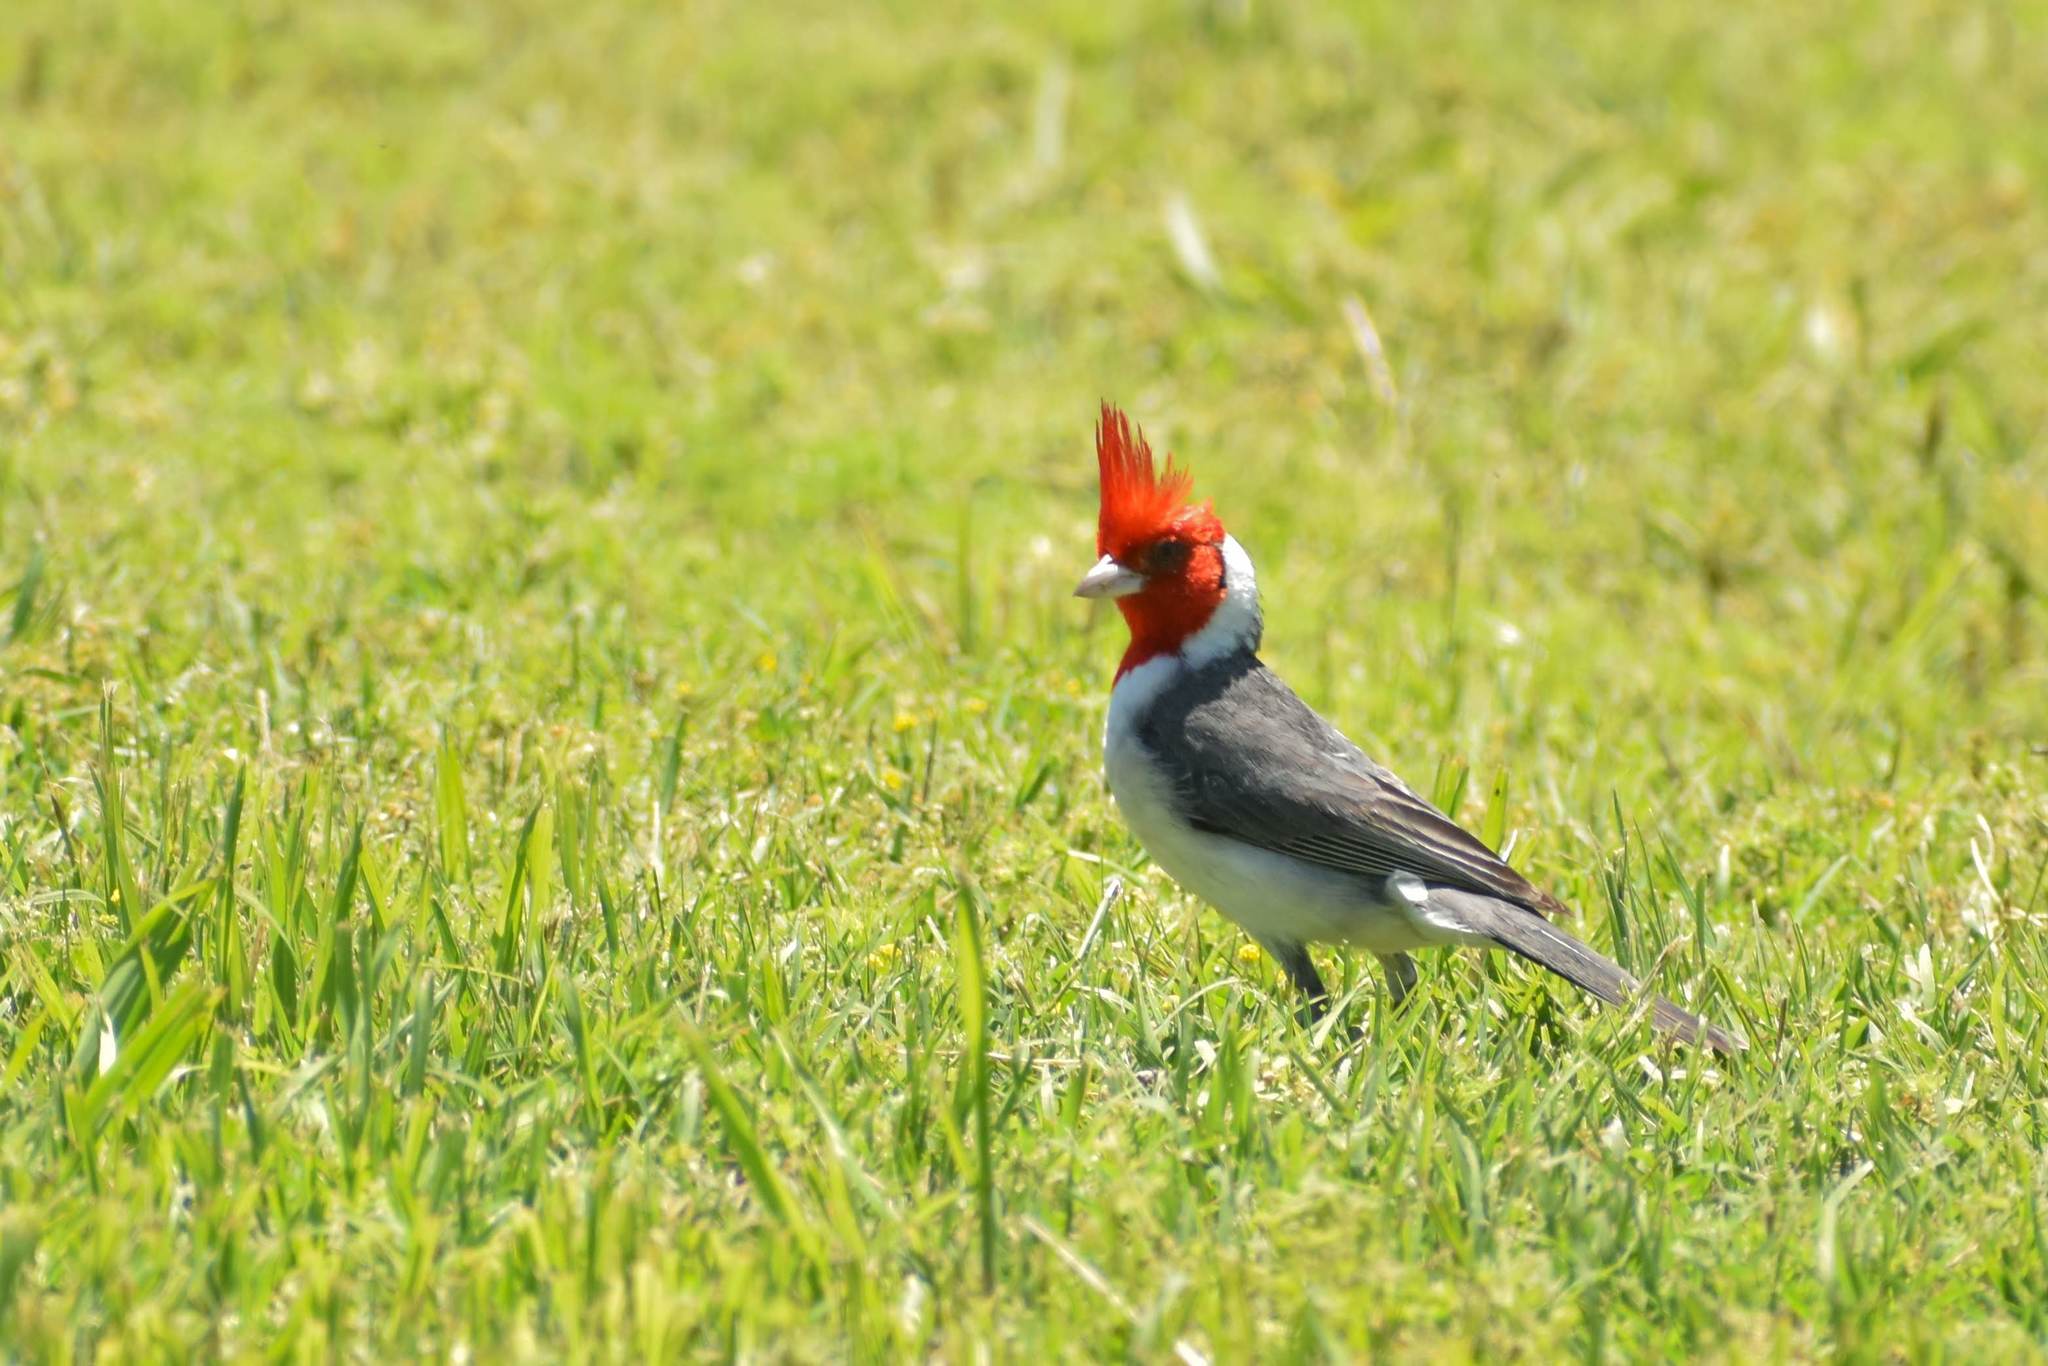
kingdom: Animalia
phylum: Chordata
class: Aves
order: Passeriformes
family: Thraupidae
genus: Paroaria
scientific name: Paroaria coronata
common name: Red-crested cardinal
